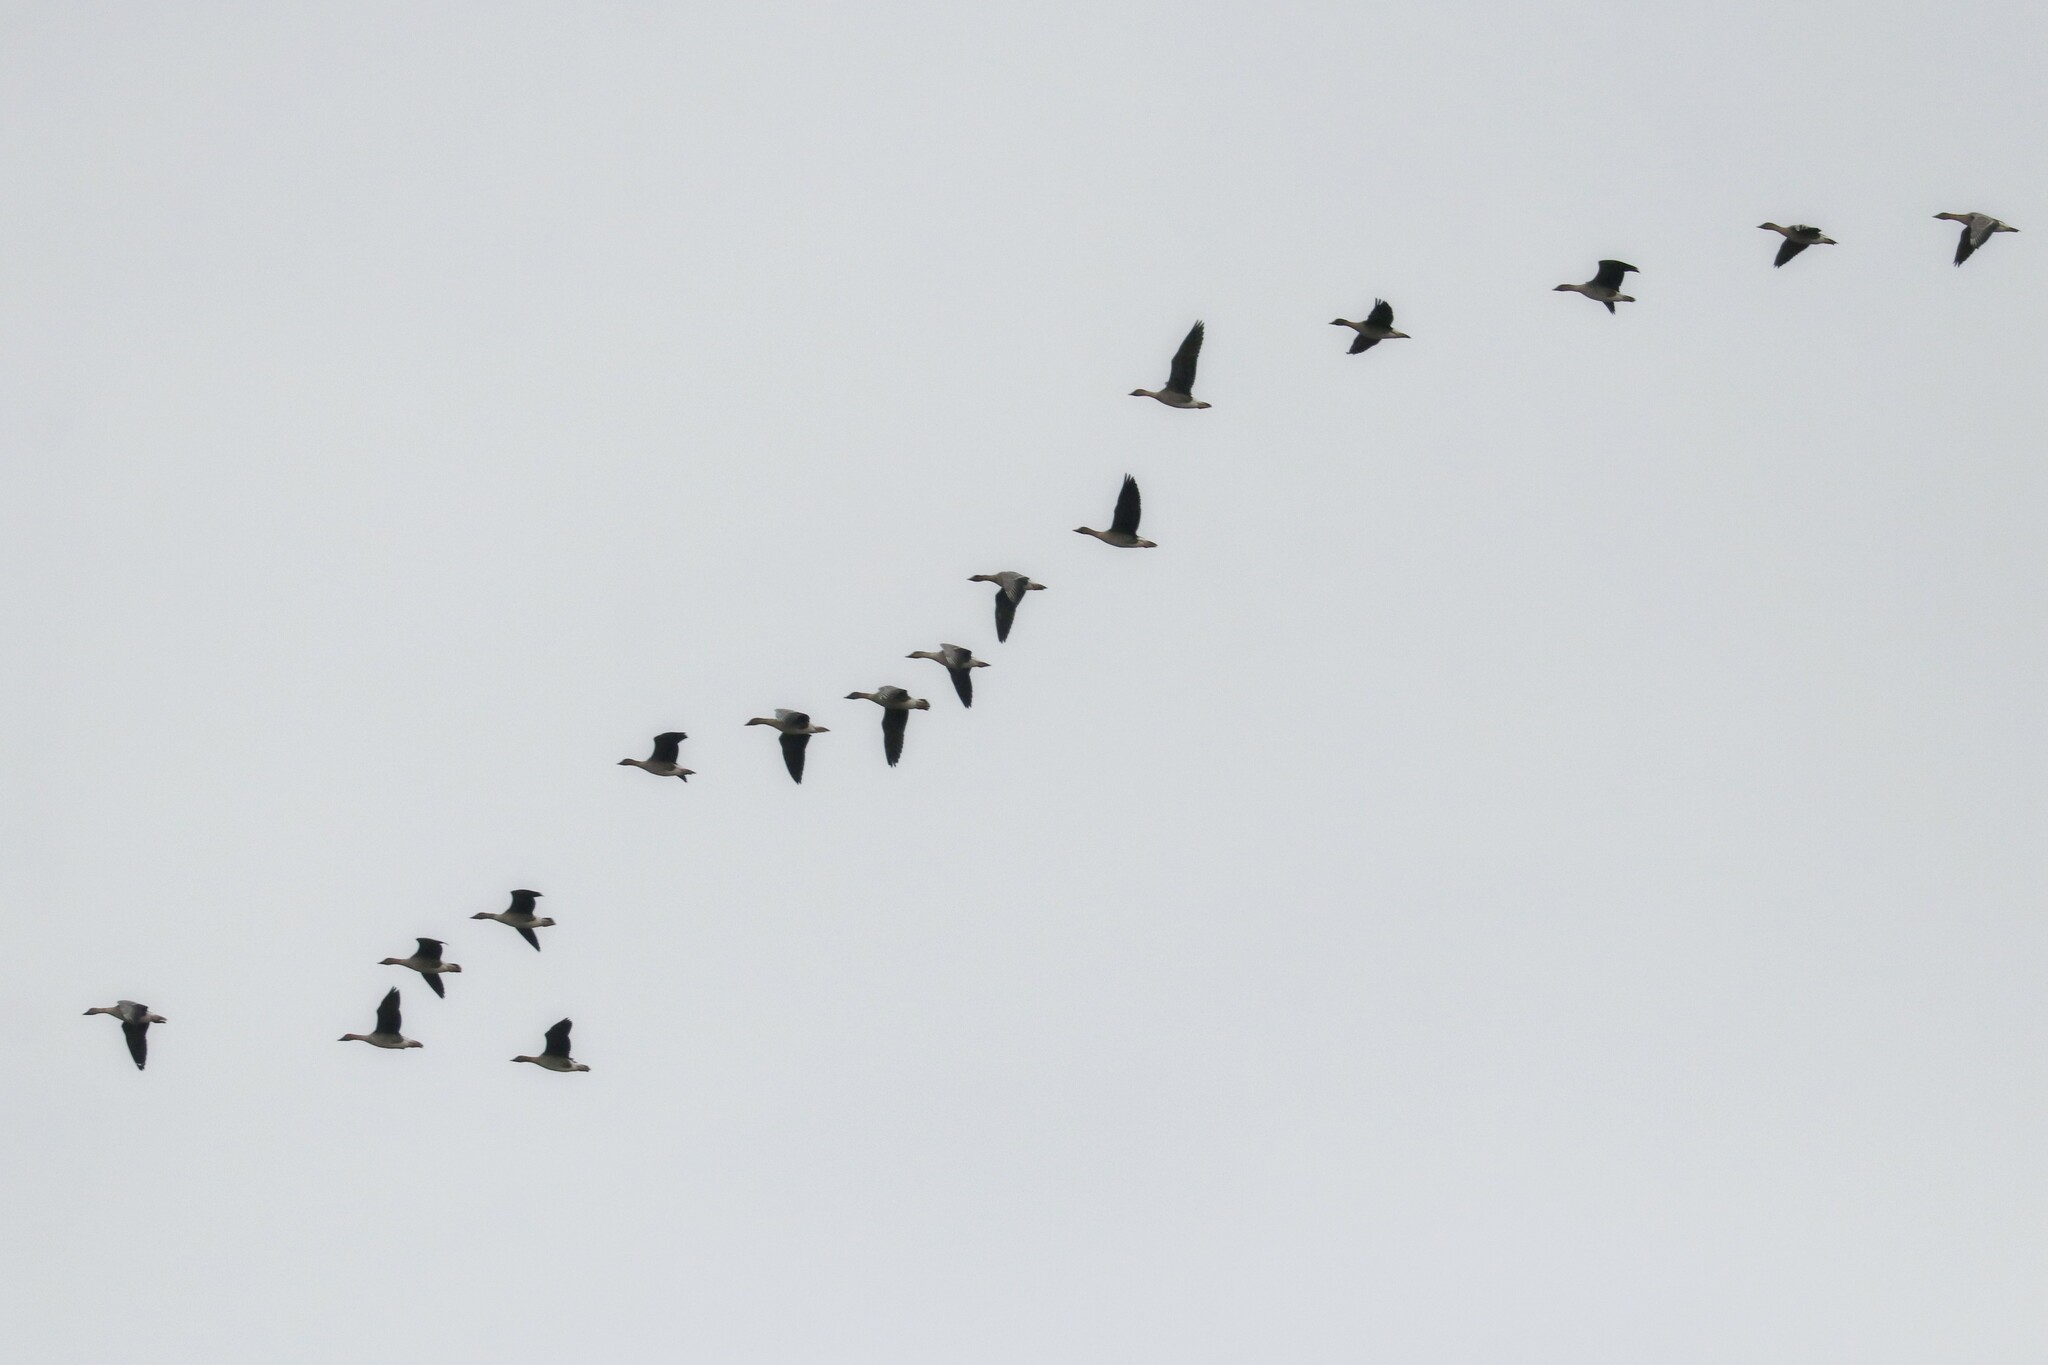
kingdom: Animalia
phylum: Chordata
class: Aves
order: Anseriformes
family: Anatidae
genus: Anser
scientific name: Anser fabalis
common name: Bean goose
